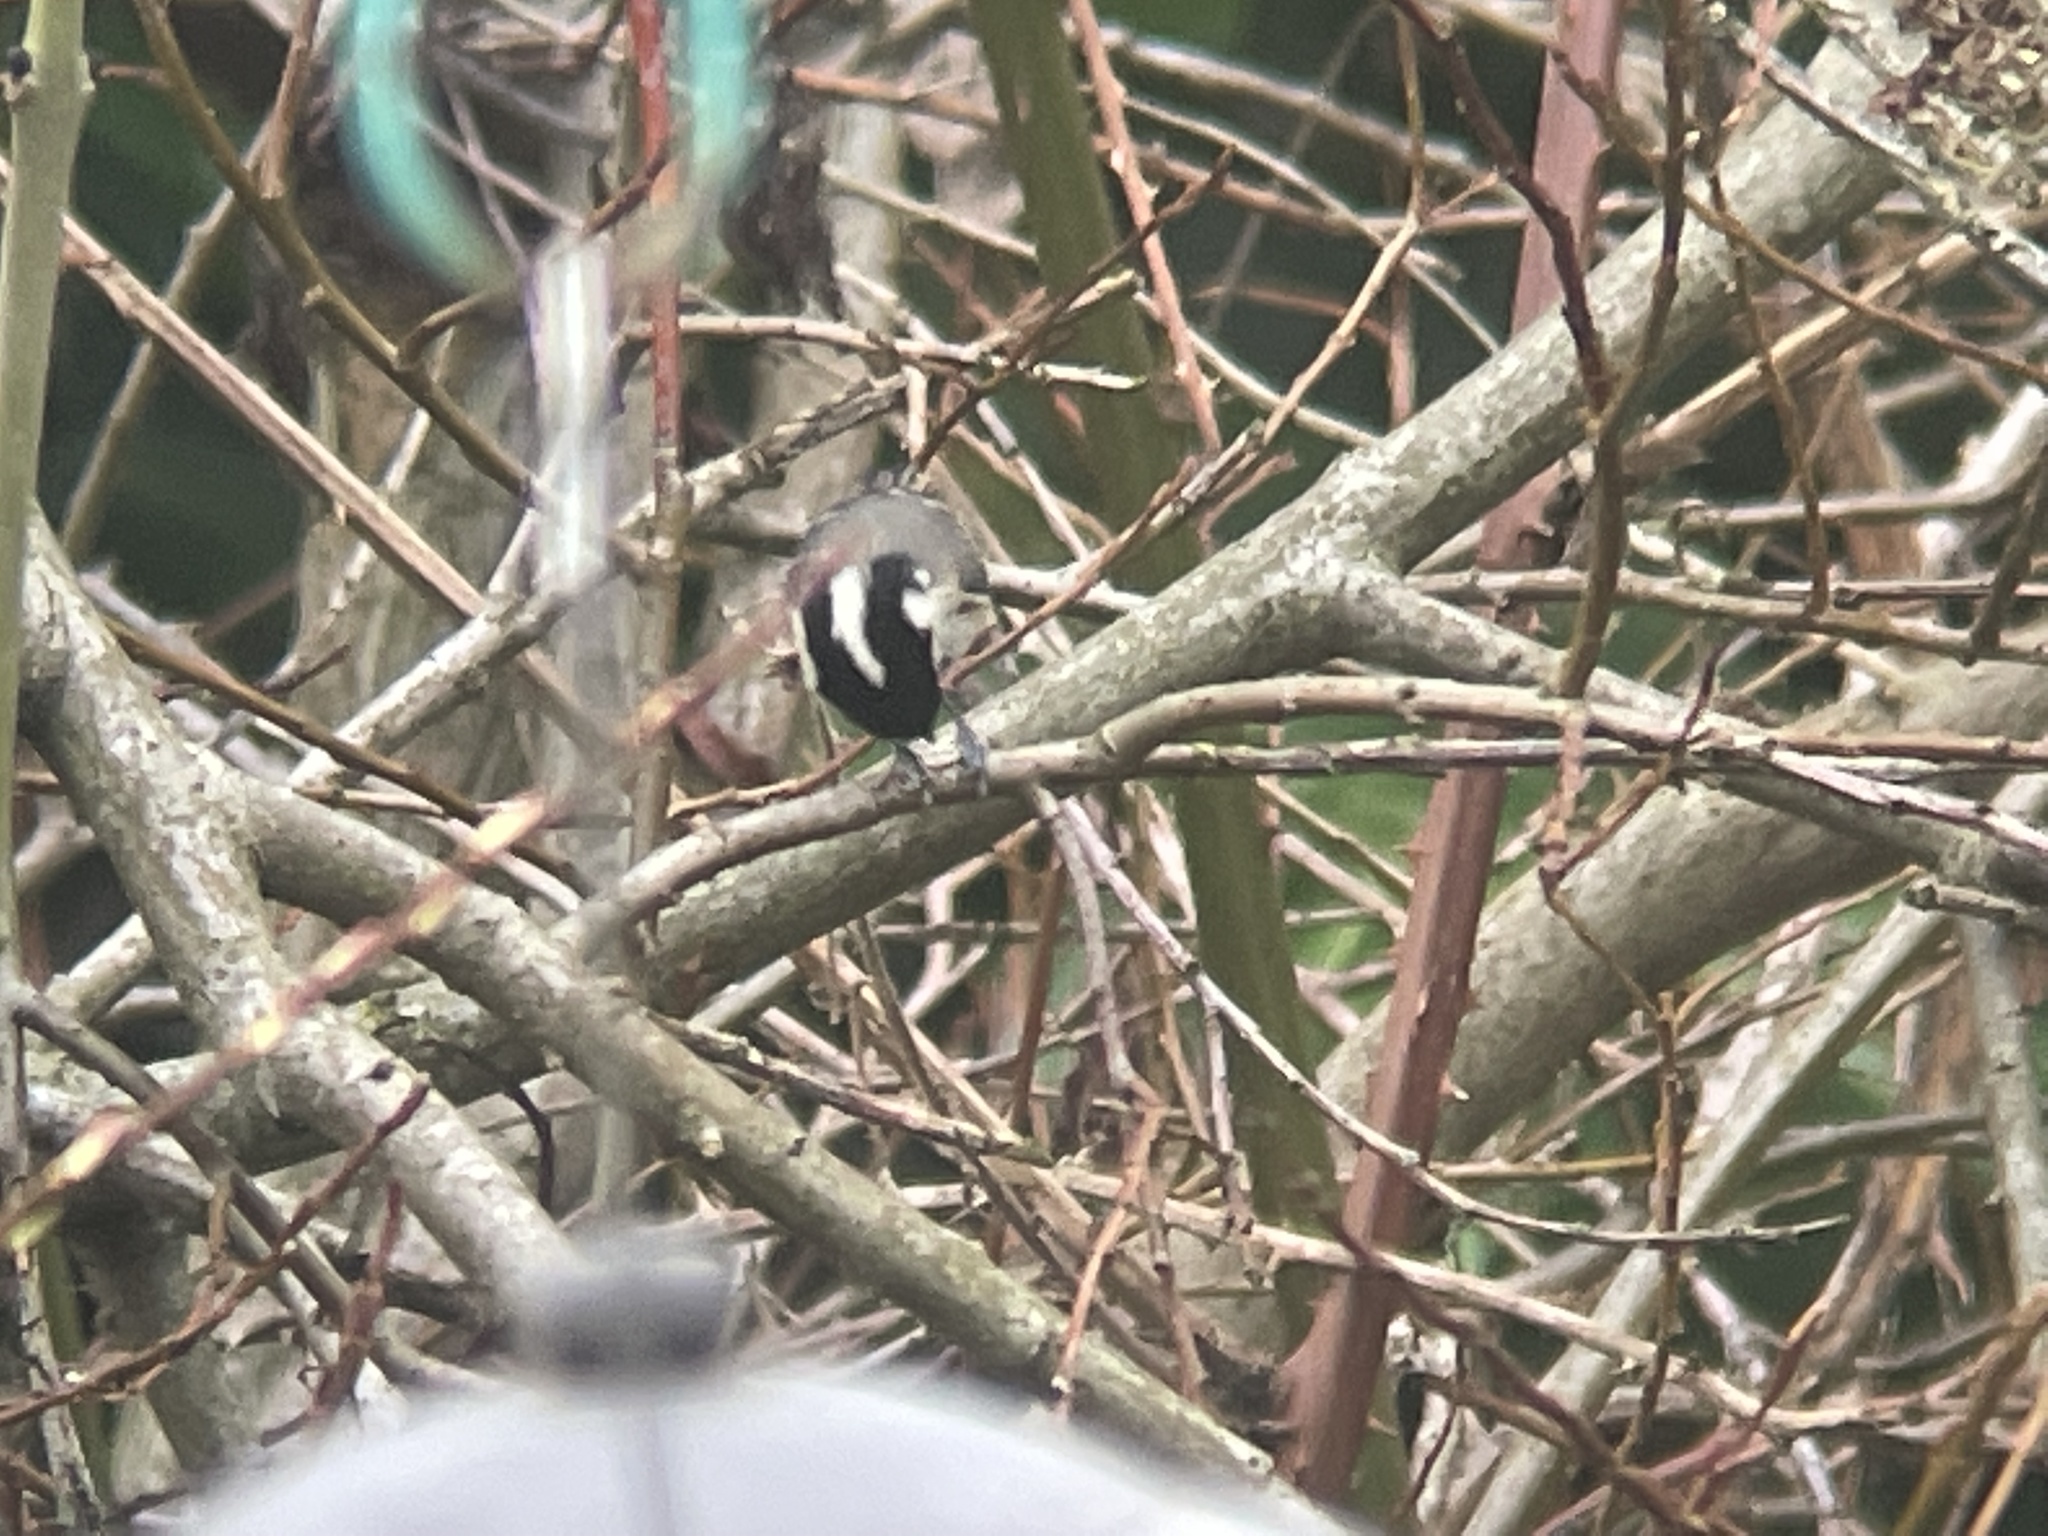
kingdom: Animalia
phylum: Chordata
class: Aves
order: Passeriformes
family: Paridae
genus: Periparus
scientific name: Periparus ater
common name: Coal tit
